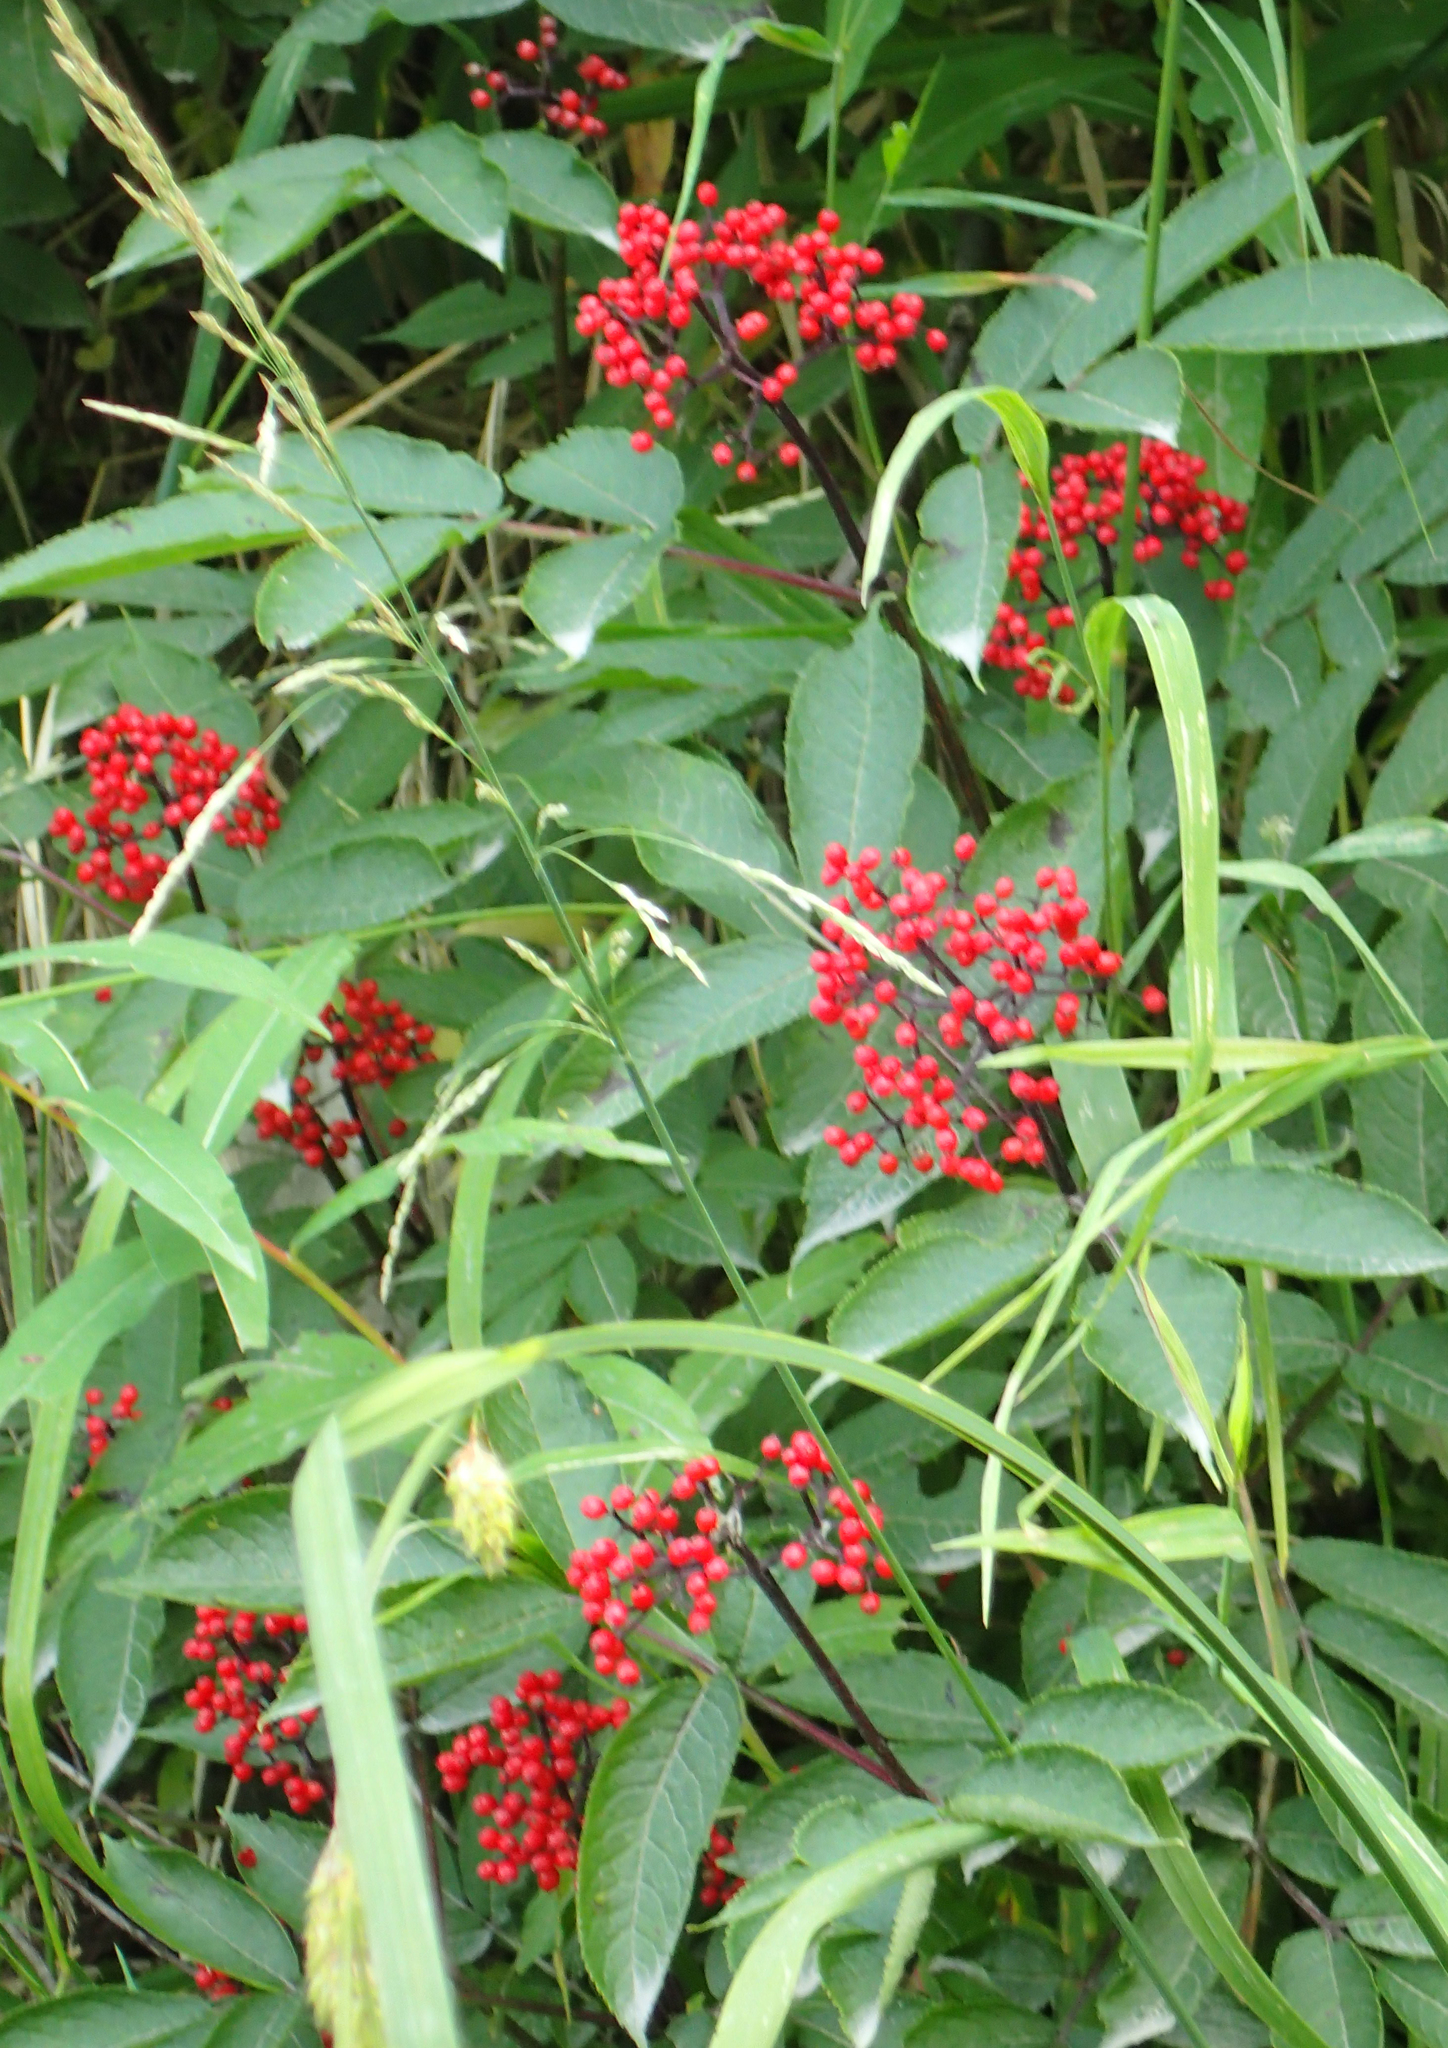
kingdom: Plantae
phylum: Tracheophyta
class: Magnoliopsida
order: Dipsacales
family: Viburnaceae
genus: Sambucus
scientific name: Sambucus racemosa
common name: Red-berried elder
